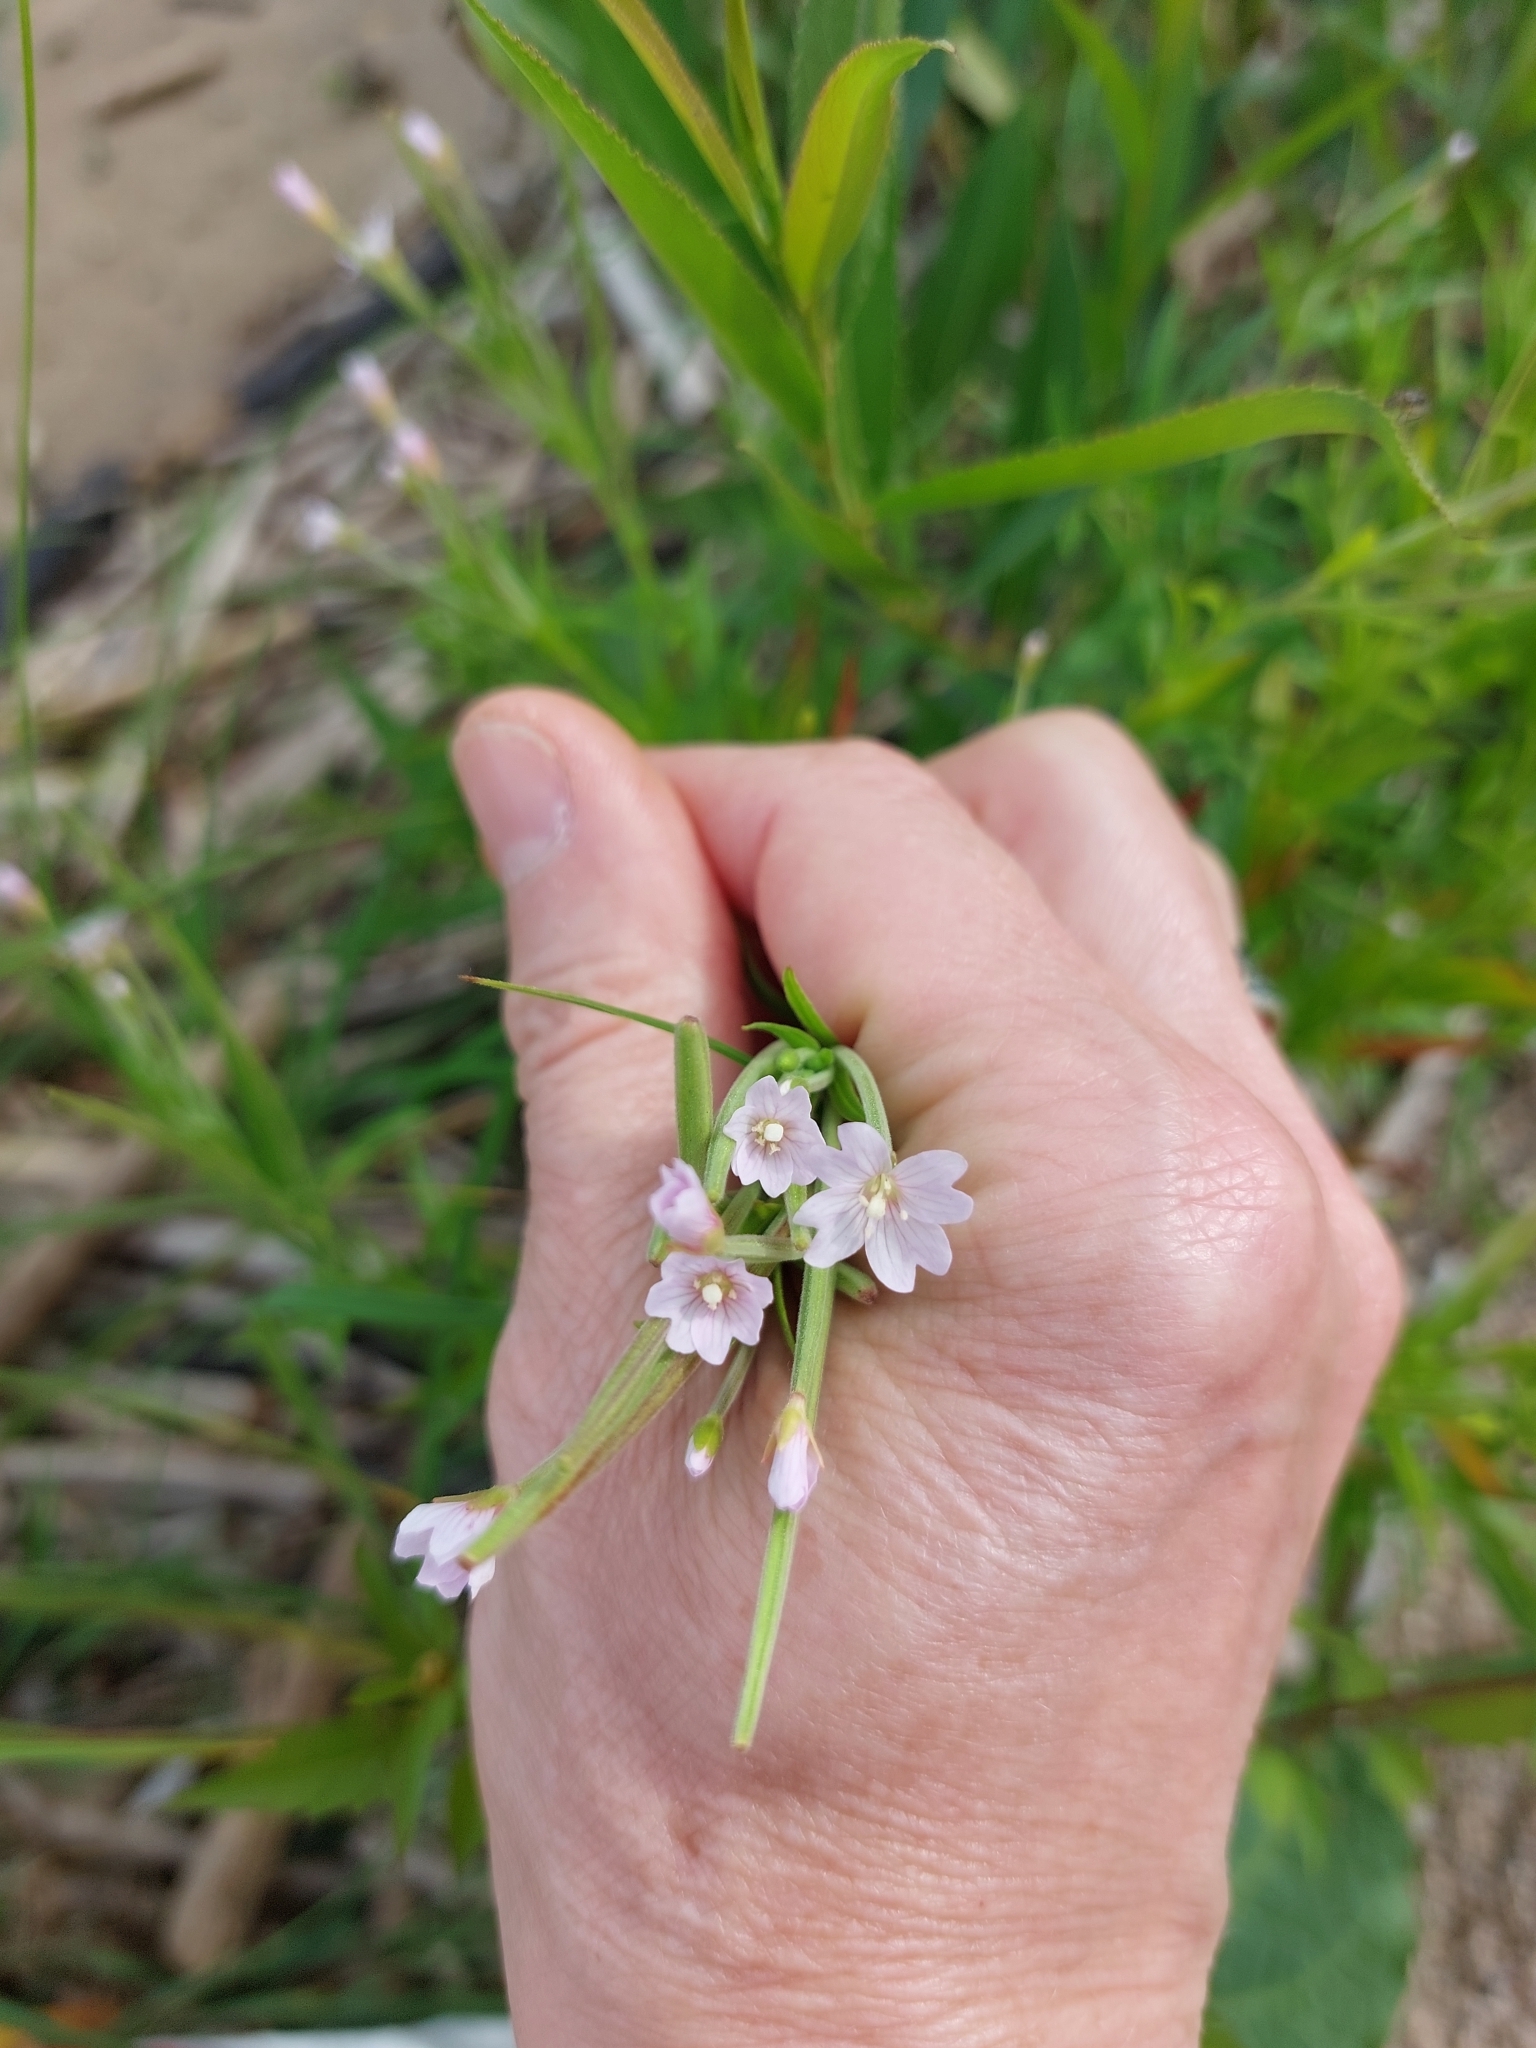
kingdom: Plantae
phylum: Tracheophyta
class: Magnoliopsida
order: Myrtales
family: Onagraceae
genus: Epilobium
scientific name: Epilobium palustre
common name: Marsh willowherb
